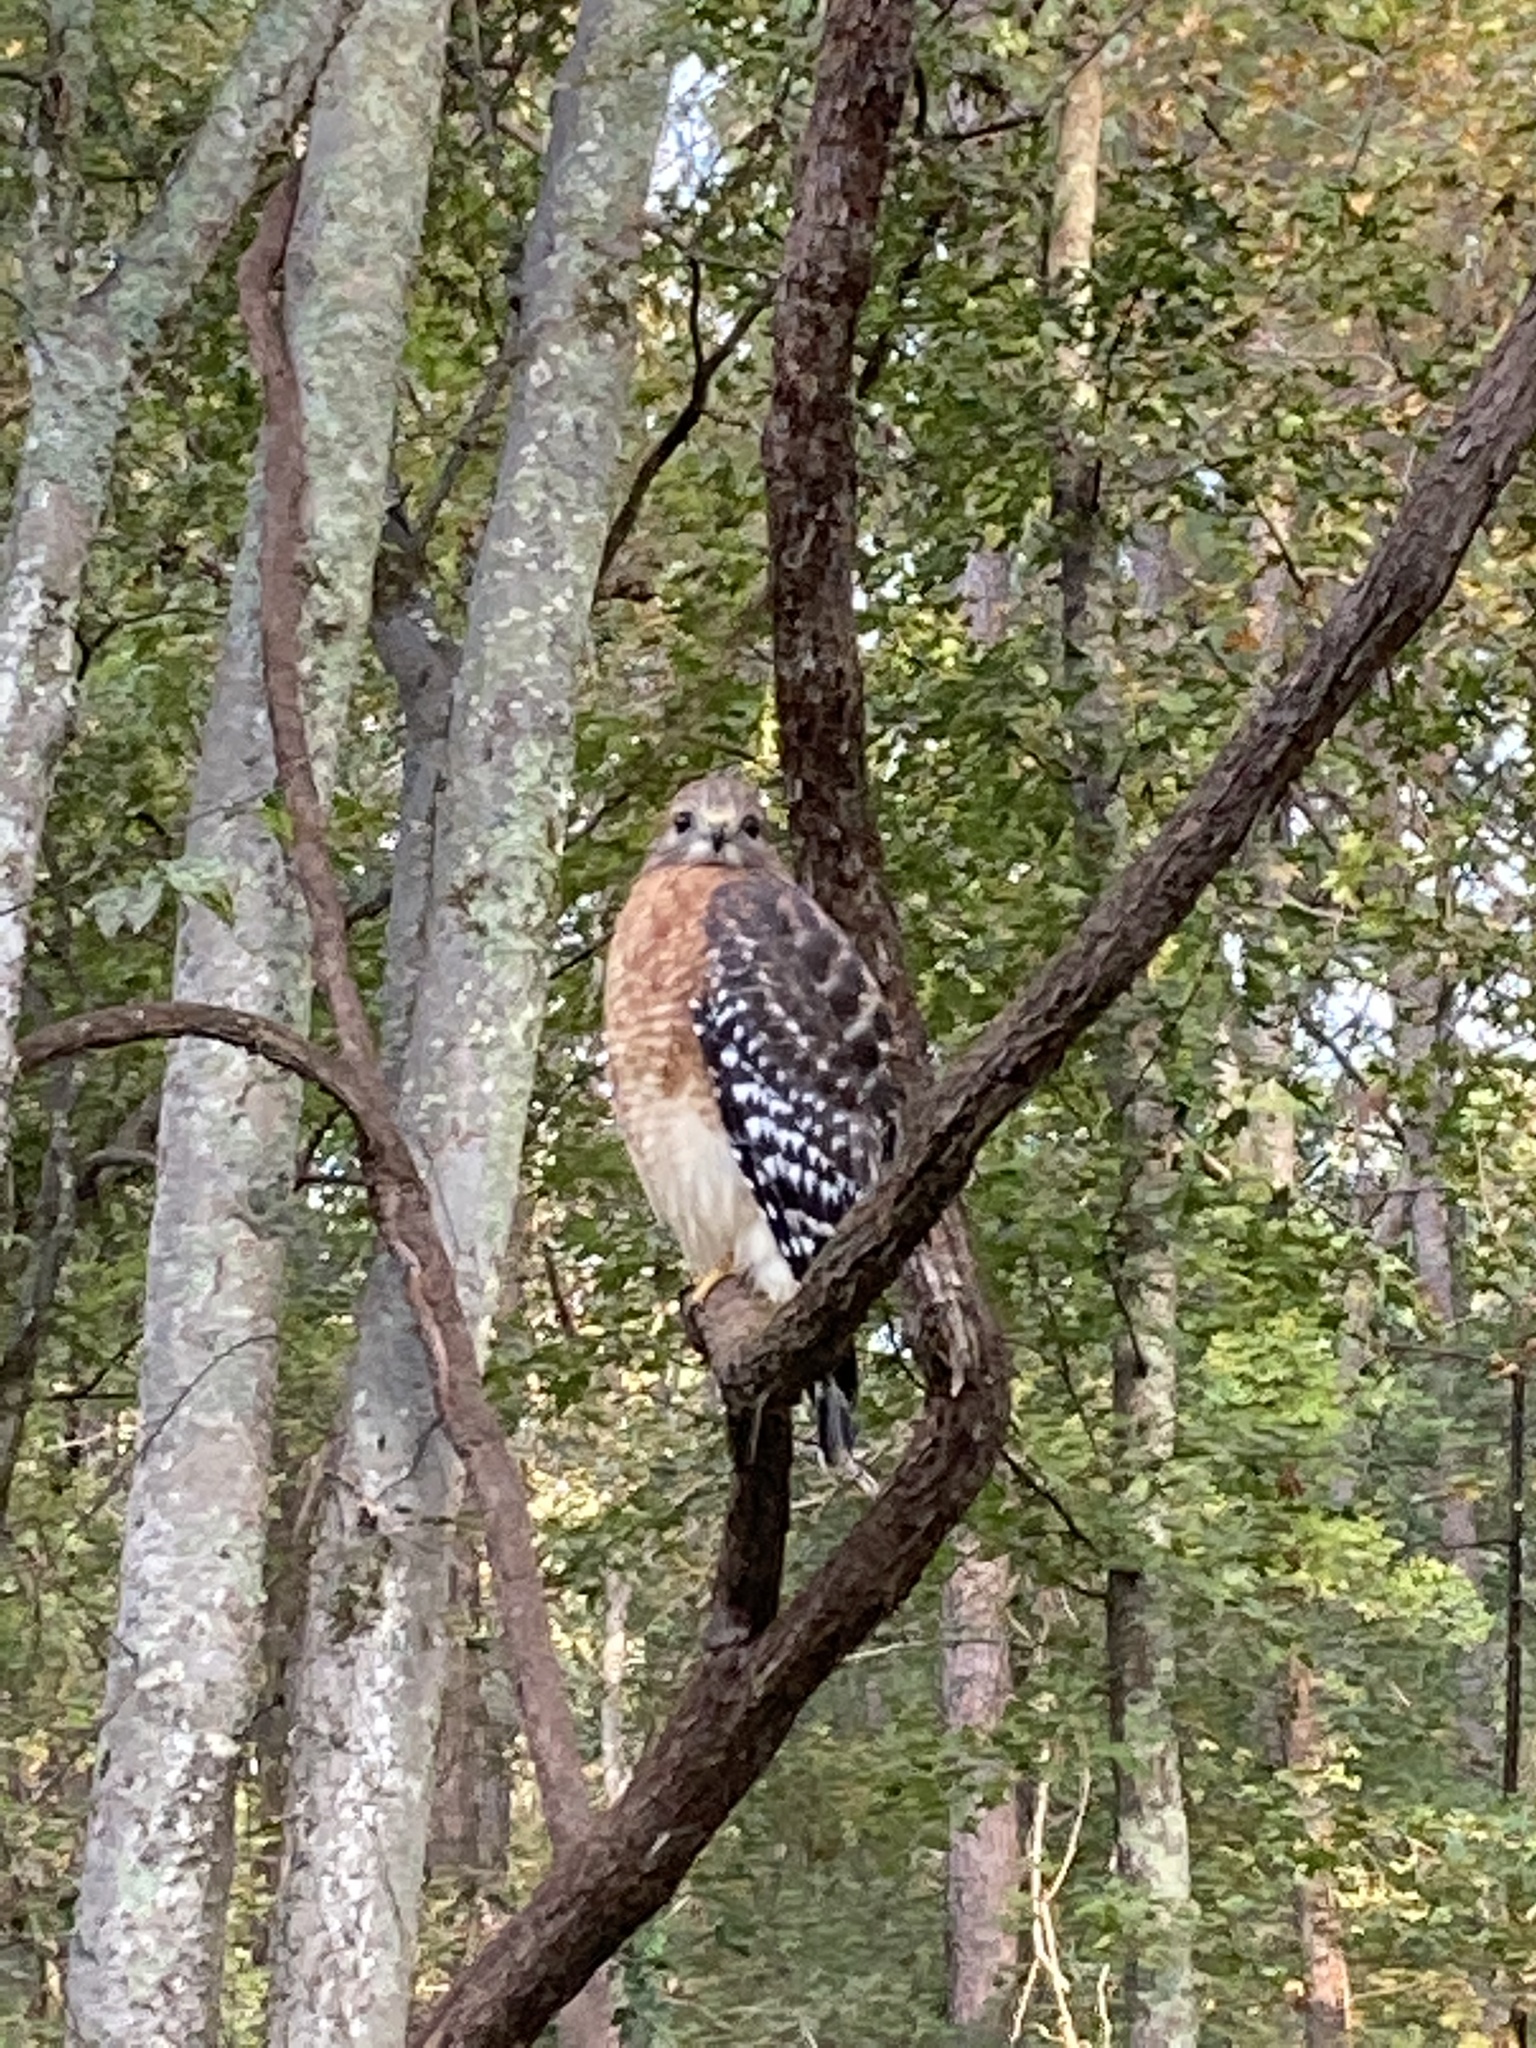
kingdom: Animalia
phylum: Chordata
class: Aves
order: Accipitriformes
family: Accipitridae
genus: Buteo
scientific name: Buteo lineatus
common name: Red-shouldered hawk
